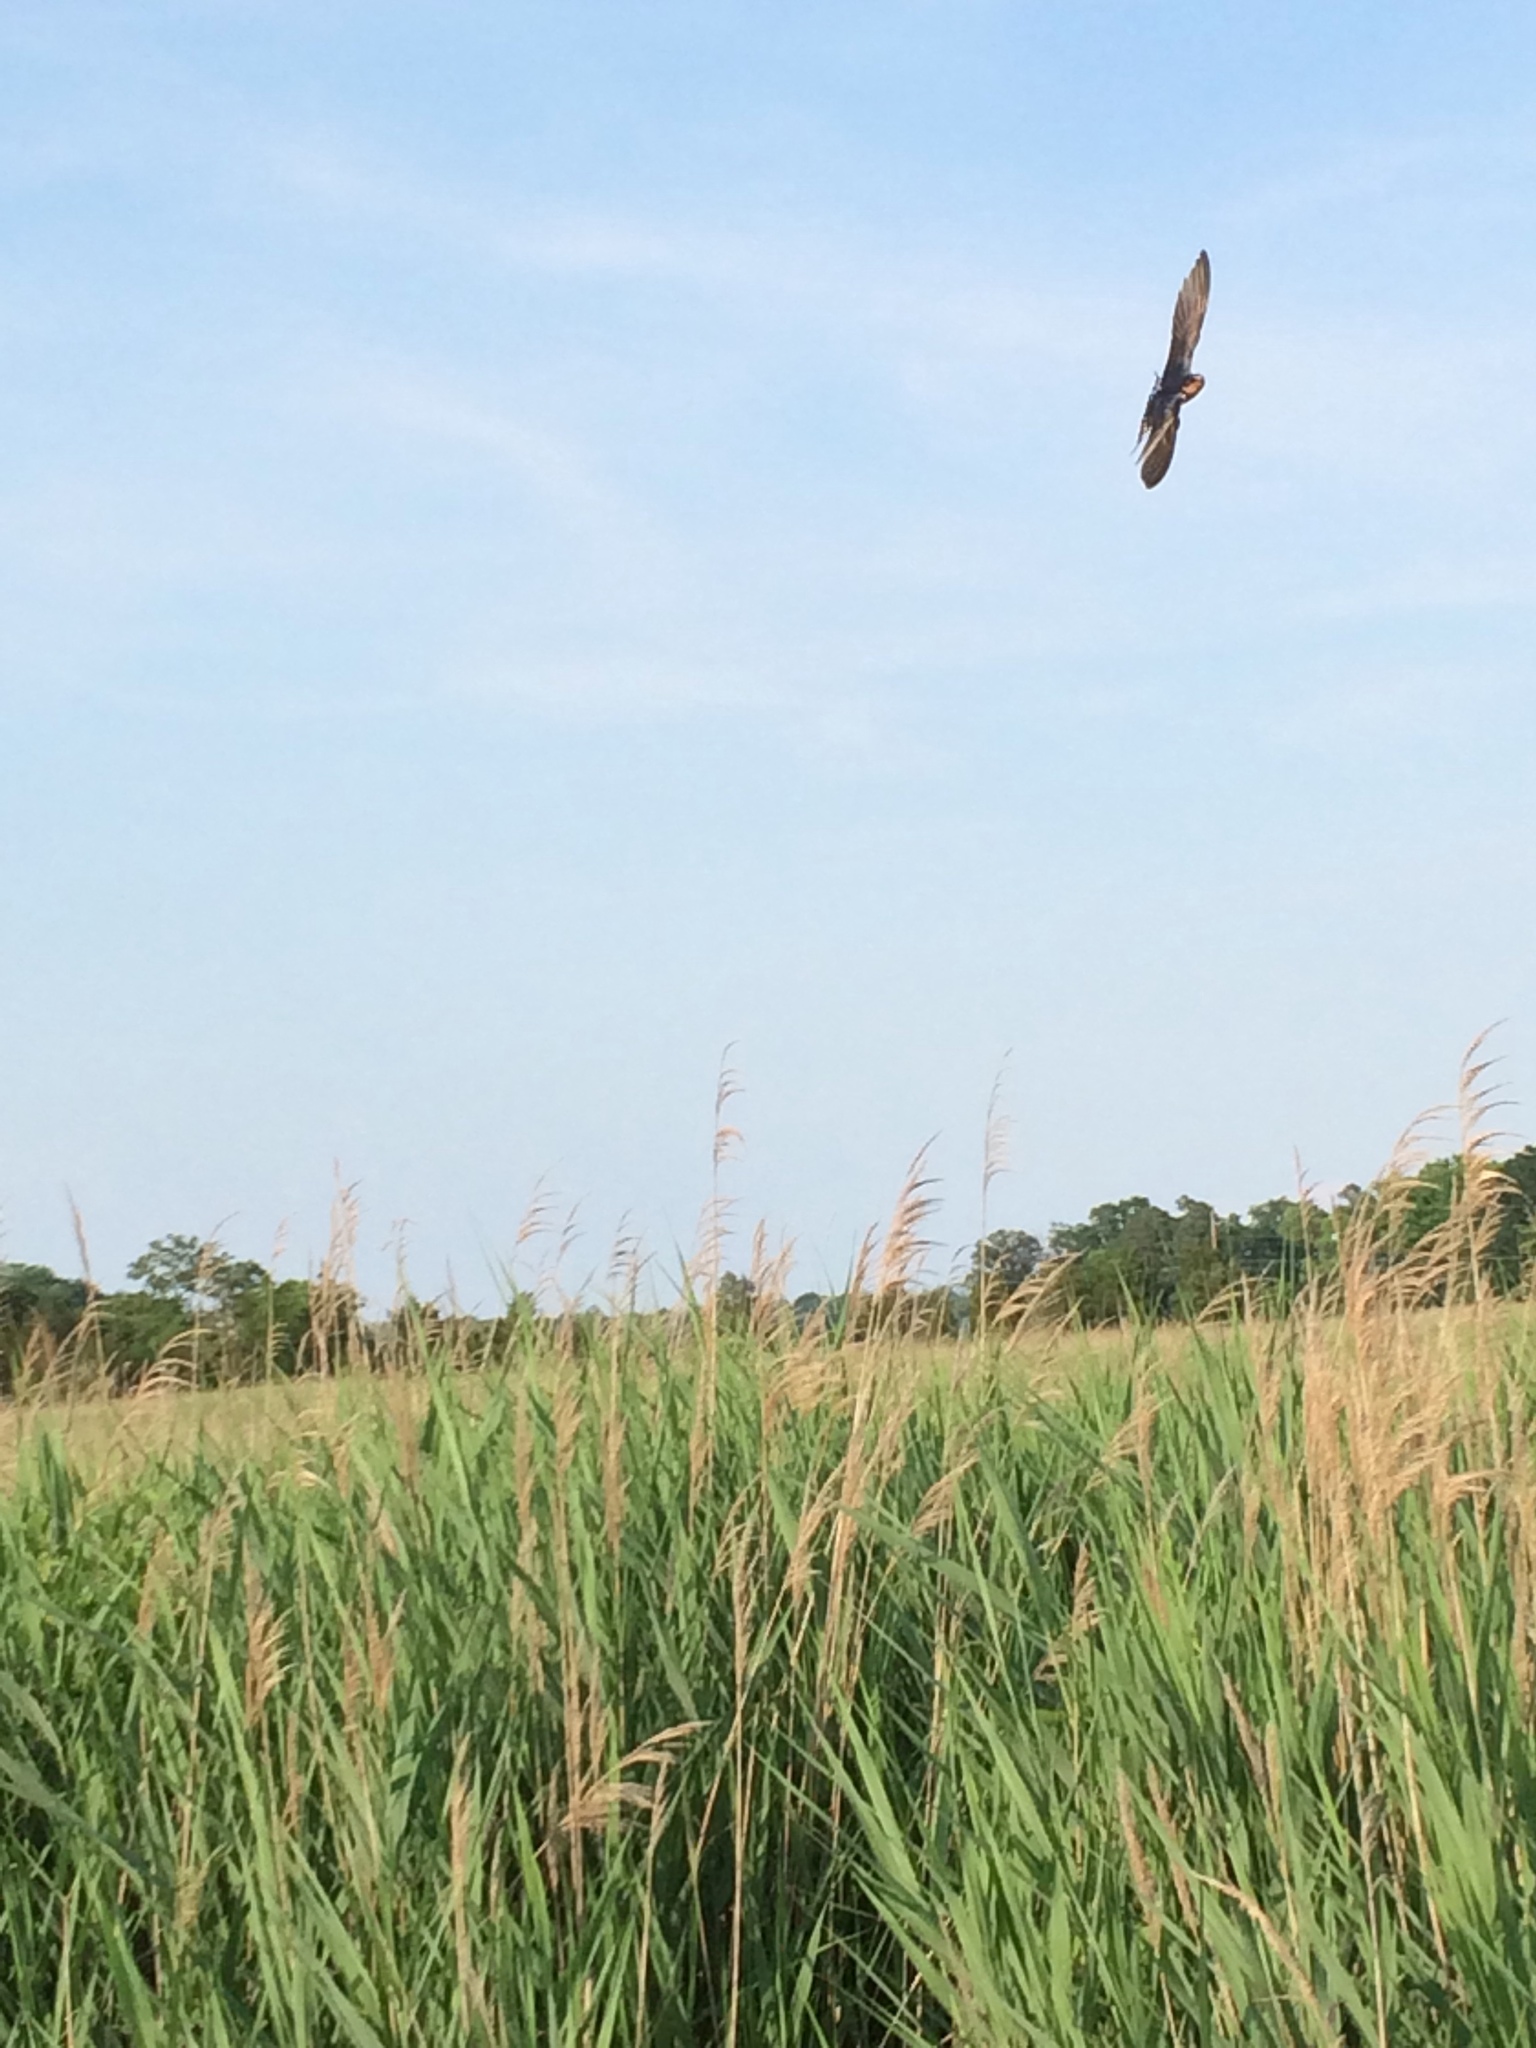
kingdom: Animalia
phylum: Chordata
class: Aves
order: Passeriformes
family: Hirundinidae
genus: Hirundo
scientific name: Hirundo rustica
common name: Barn swallow
